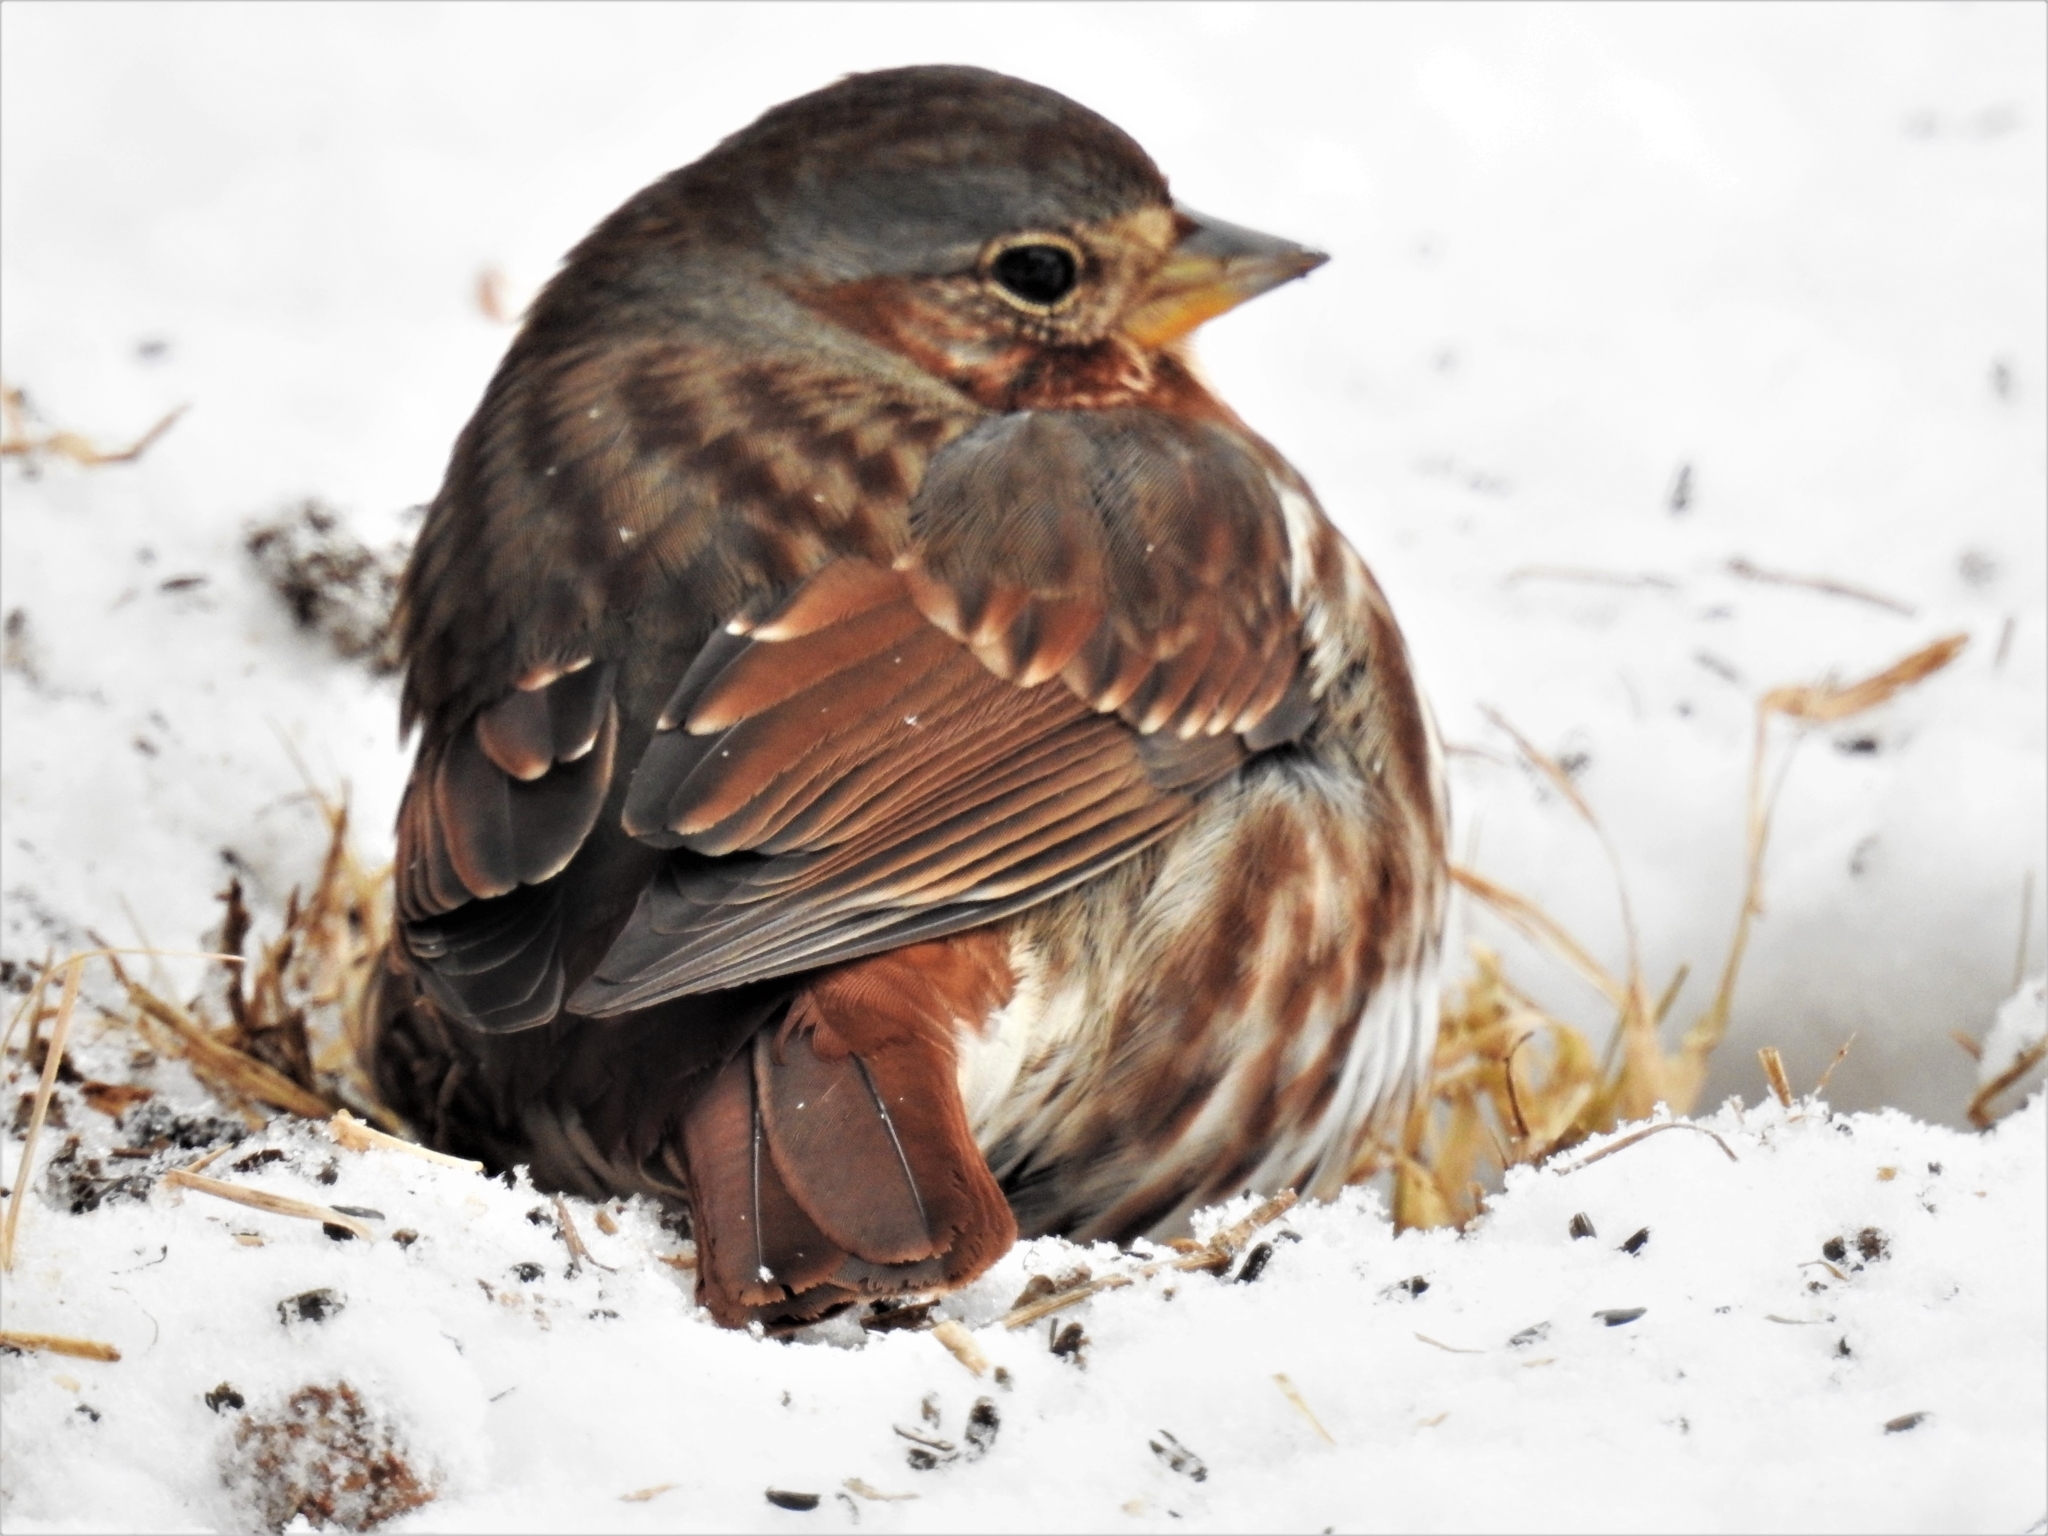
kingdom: Animalia
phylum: Chordata
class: Aves
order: Passeriformes
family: Passerellidae
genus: Passerella
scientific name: Passerella iliaca
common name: Fox sparrow
